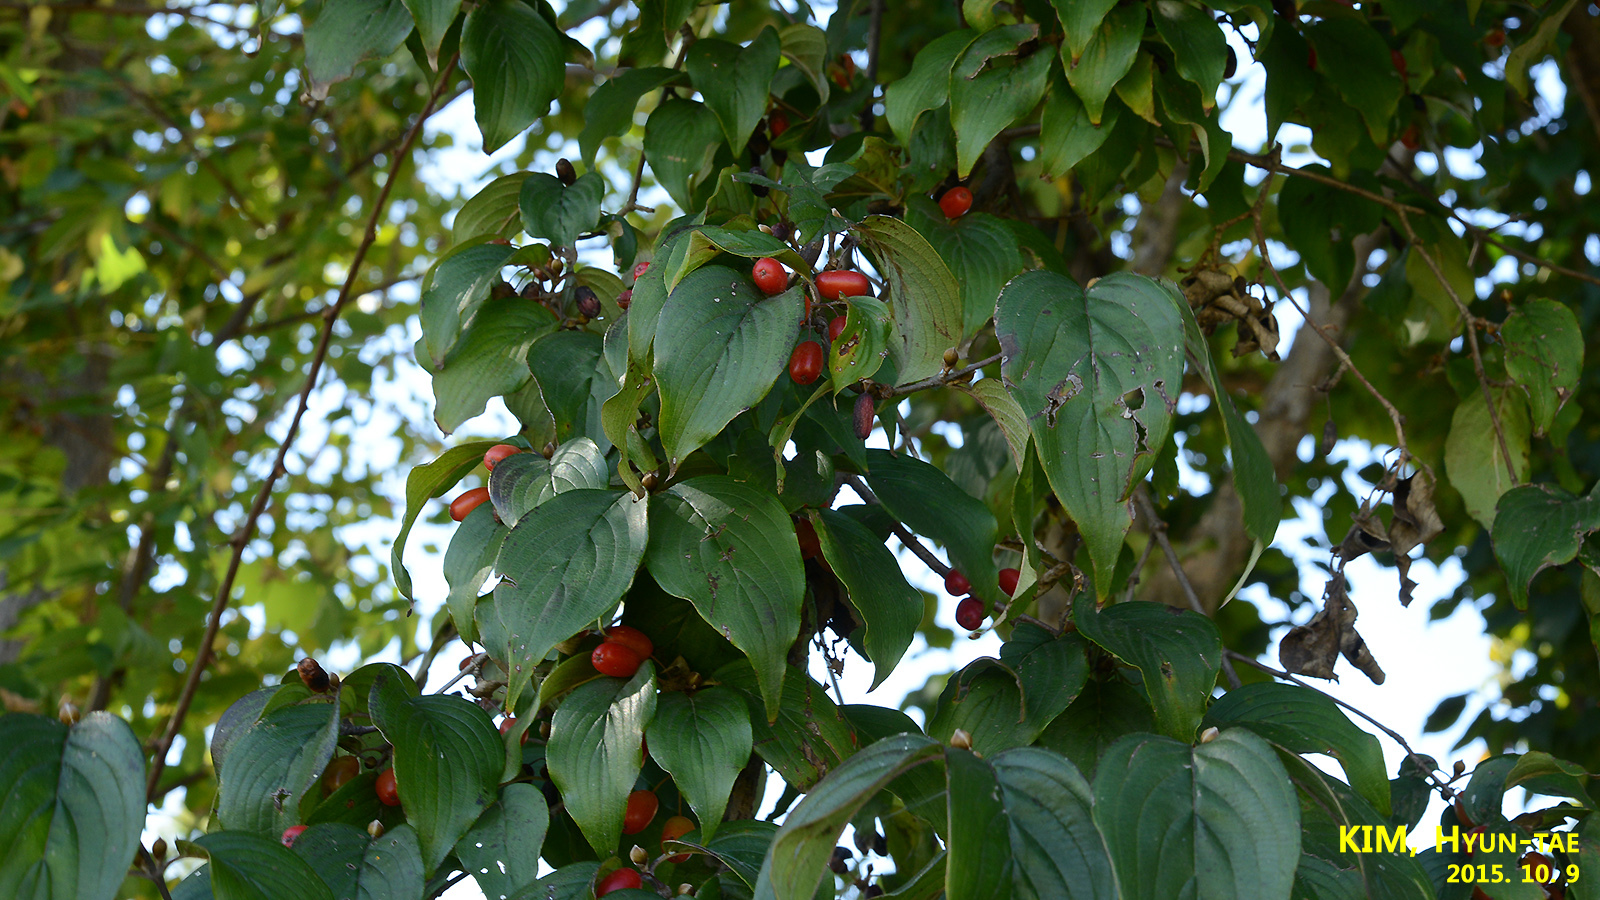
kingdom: Plantae
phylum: Tracheophyta
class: Magnoliopsida
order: Cornales
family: Cornaceae
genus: Cornus
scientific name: Cornus officinalis
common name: Asiatic dogwood
